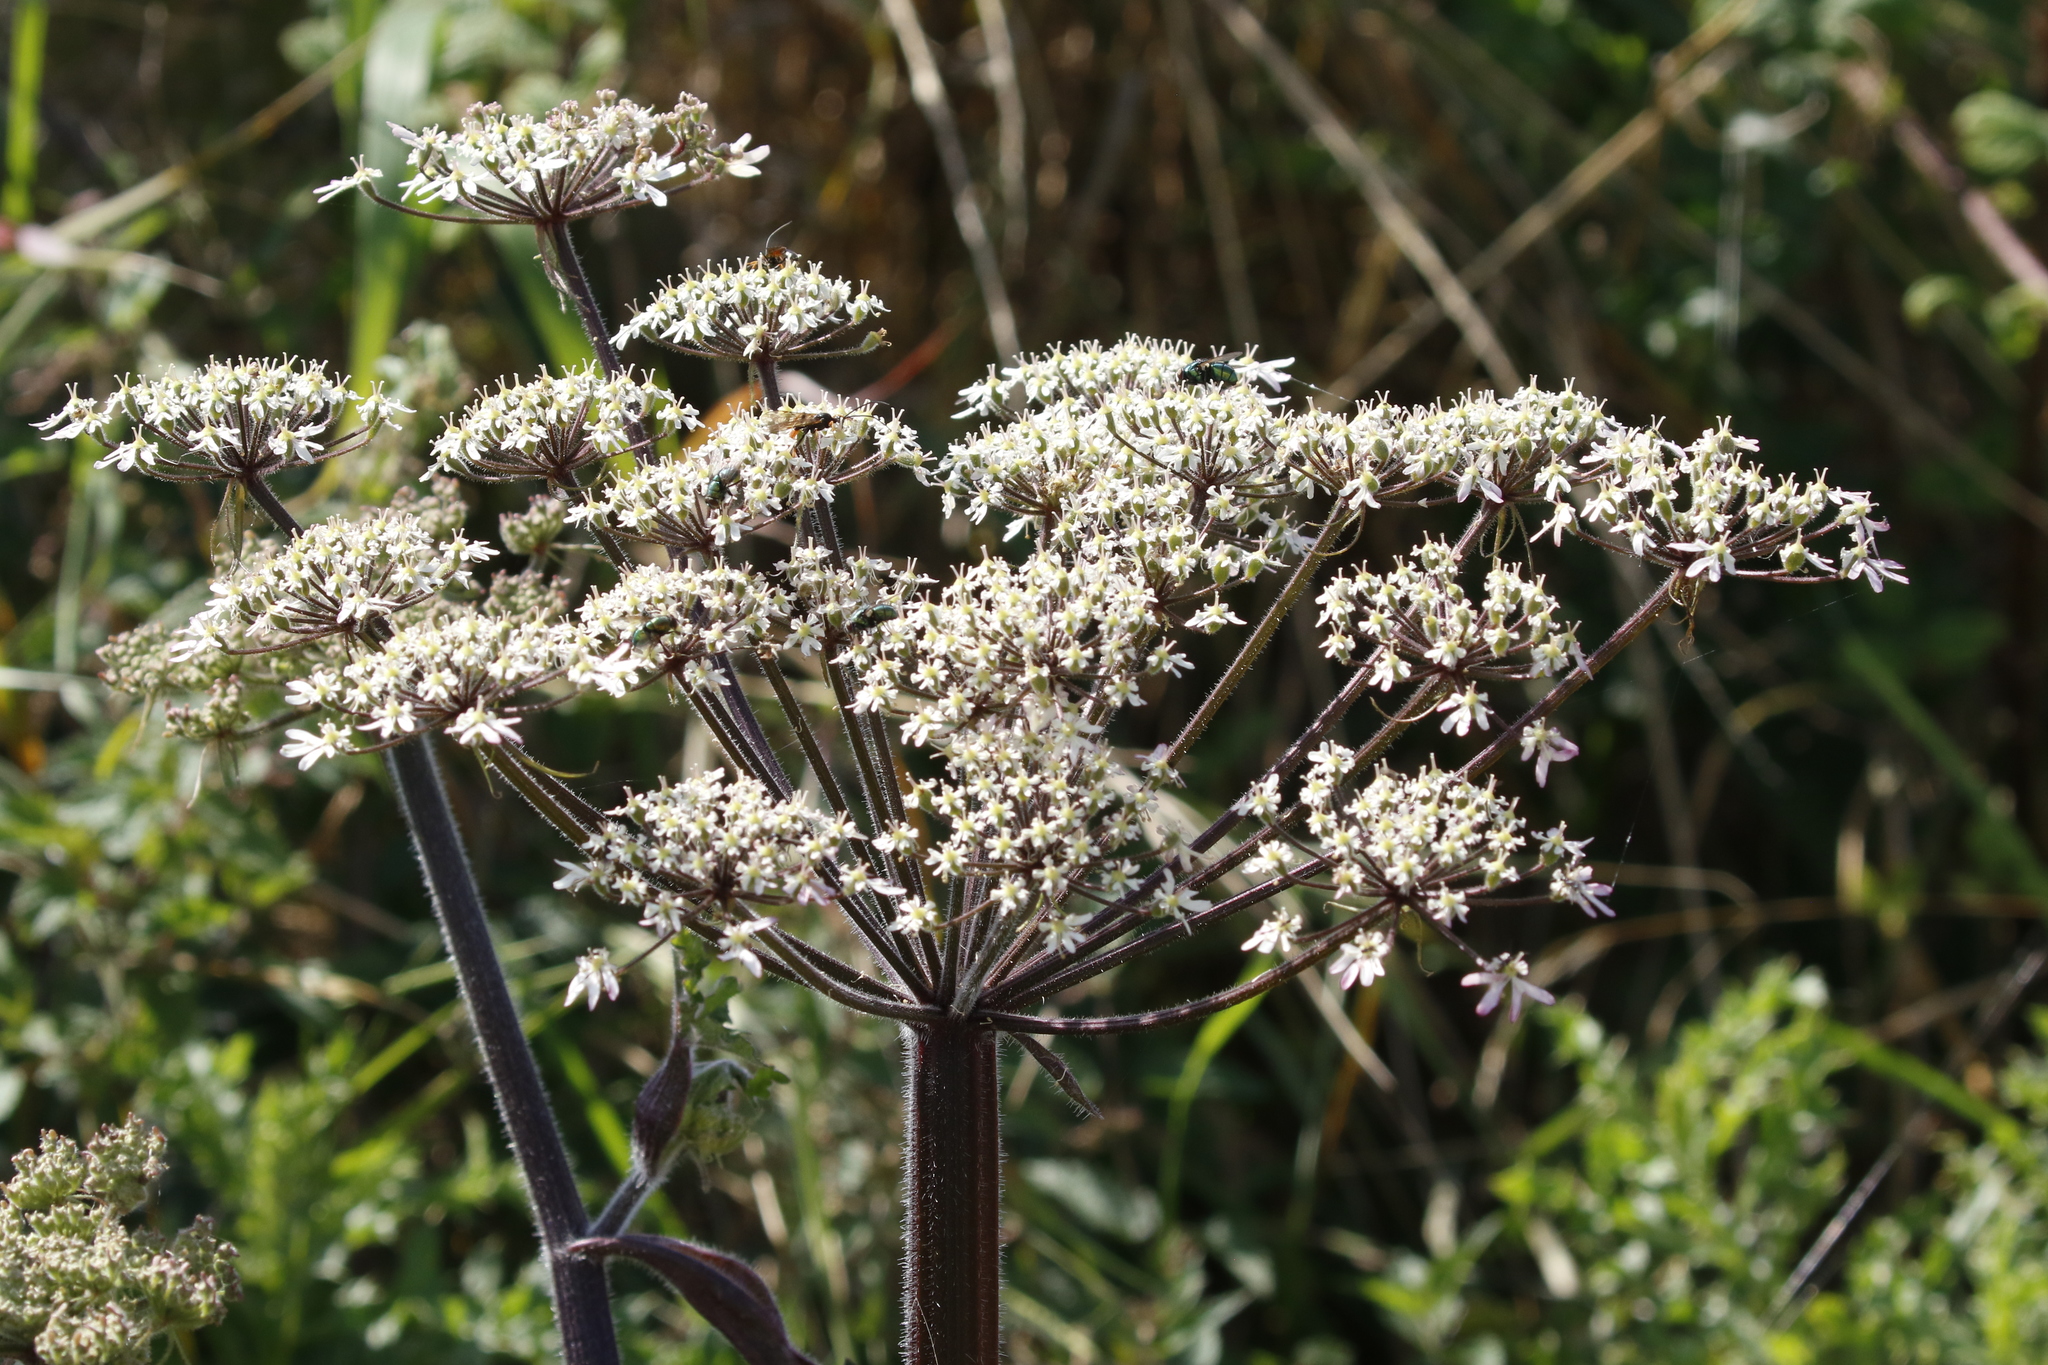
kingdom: Plantae
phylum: Tracheophyta
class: Magnoliopsida
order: Apiales
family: Apiaceae
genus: Heracleum
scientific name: Heracleum sphondylium
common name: Hogweed
